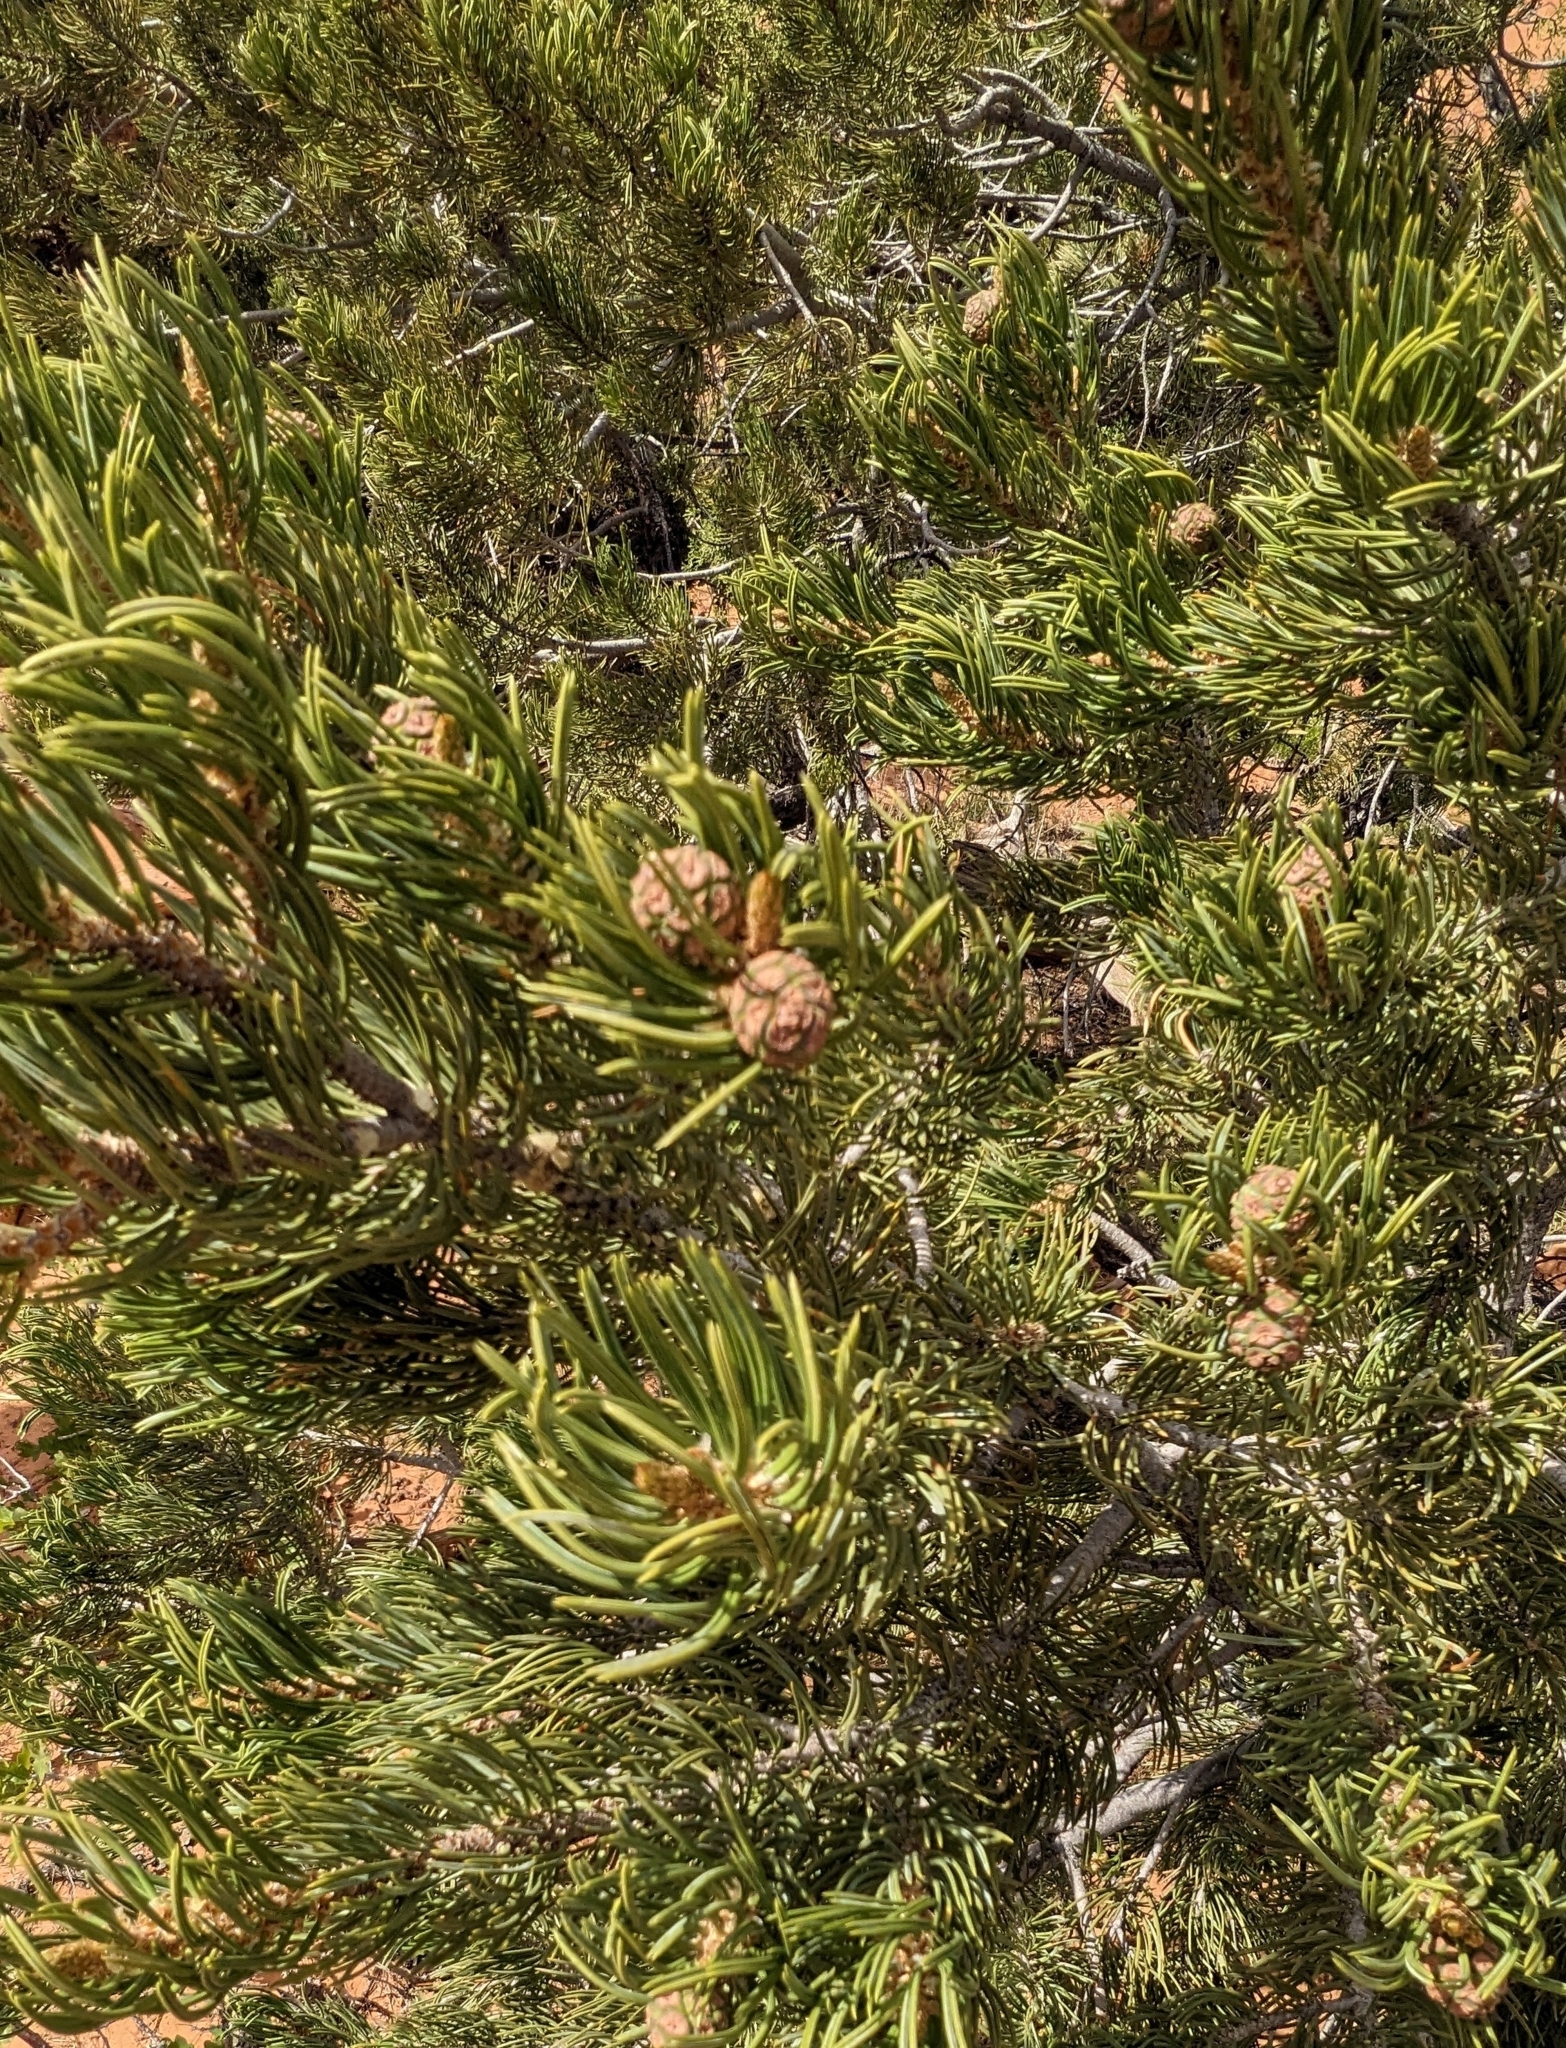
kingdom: Plantae
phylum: Tracheophyta
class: Pinopsida
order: Pinales
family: Pinaceae
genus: Pinus
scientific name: Pinus edulis
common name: Colorado pinyon
